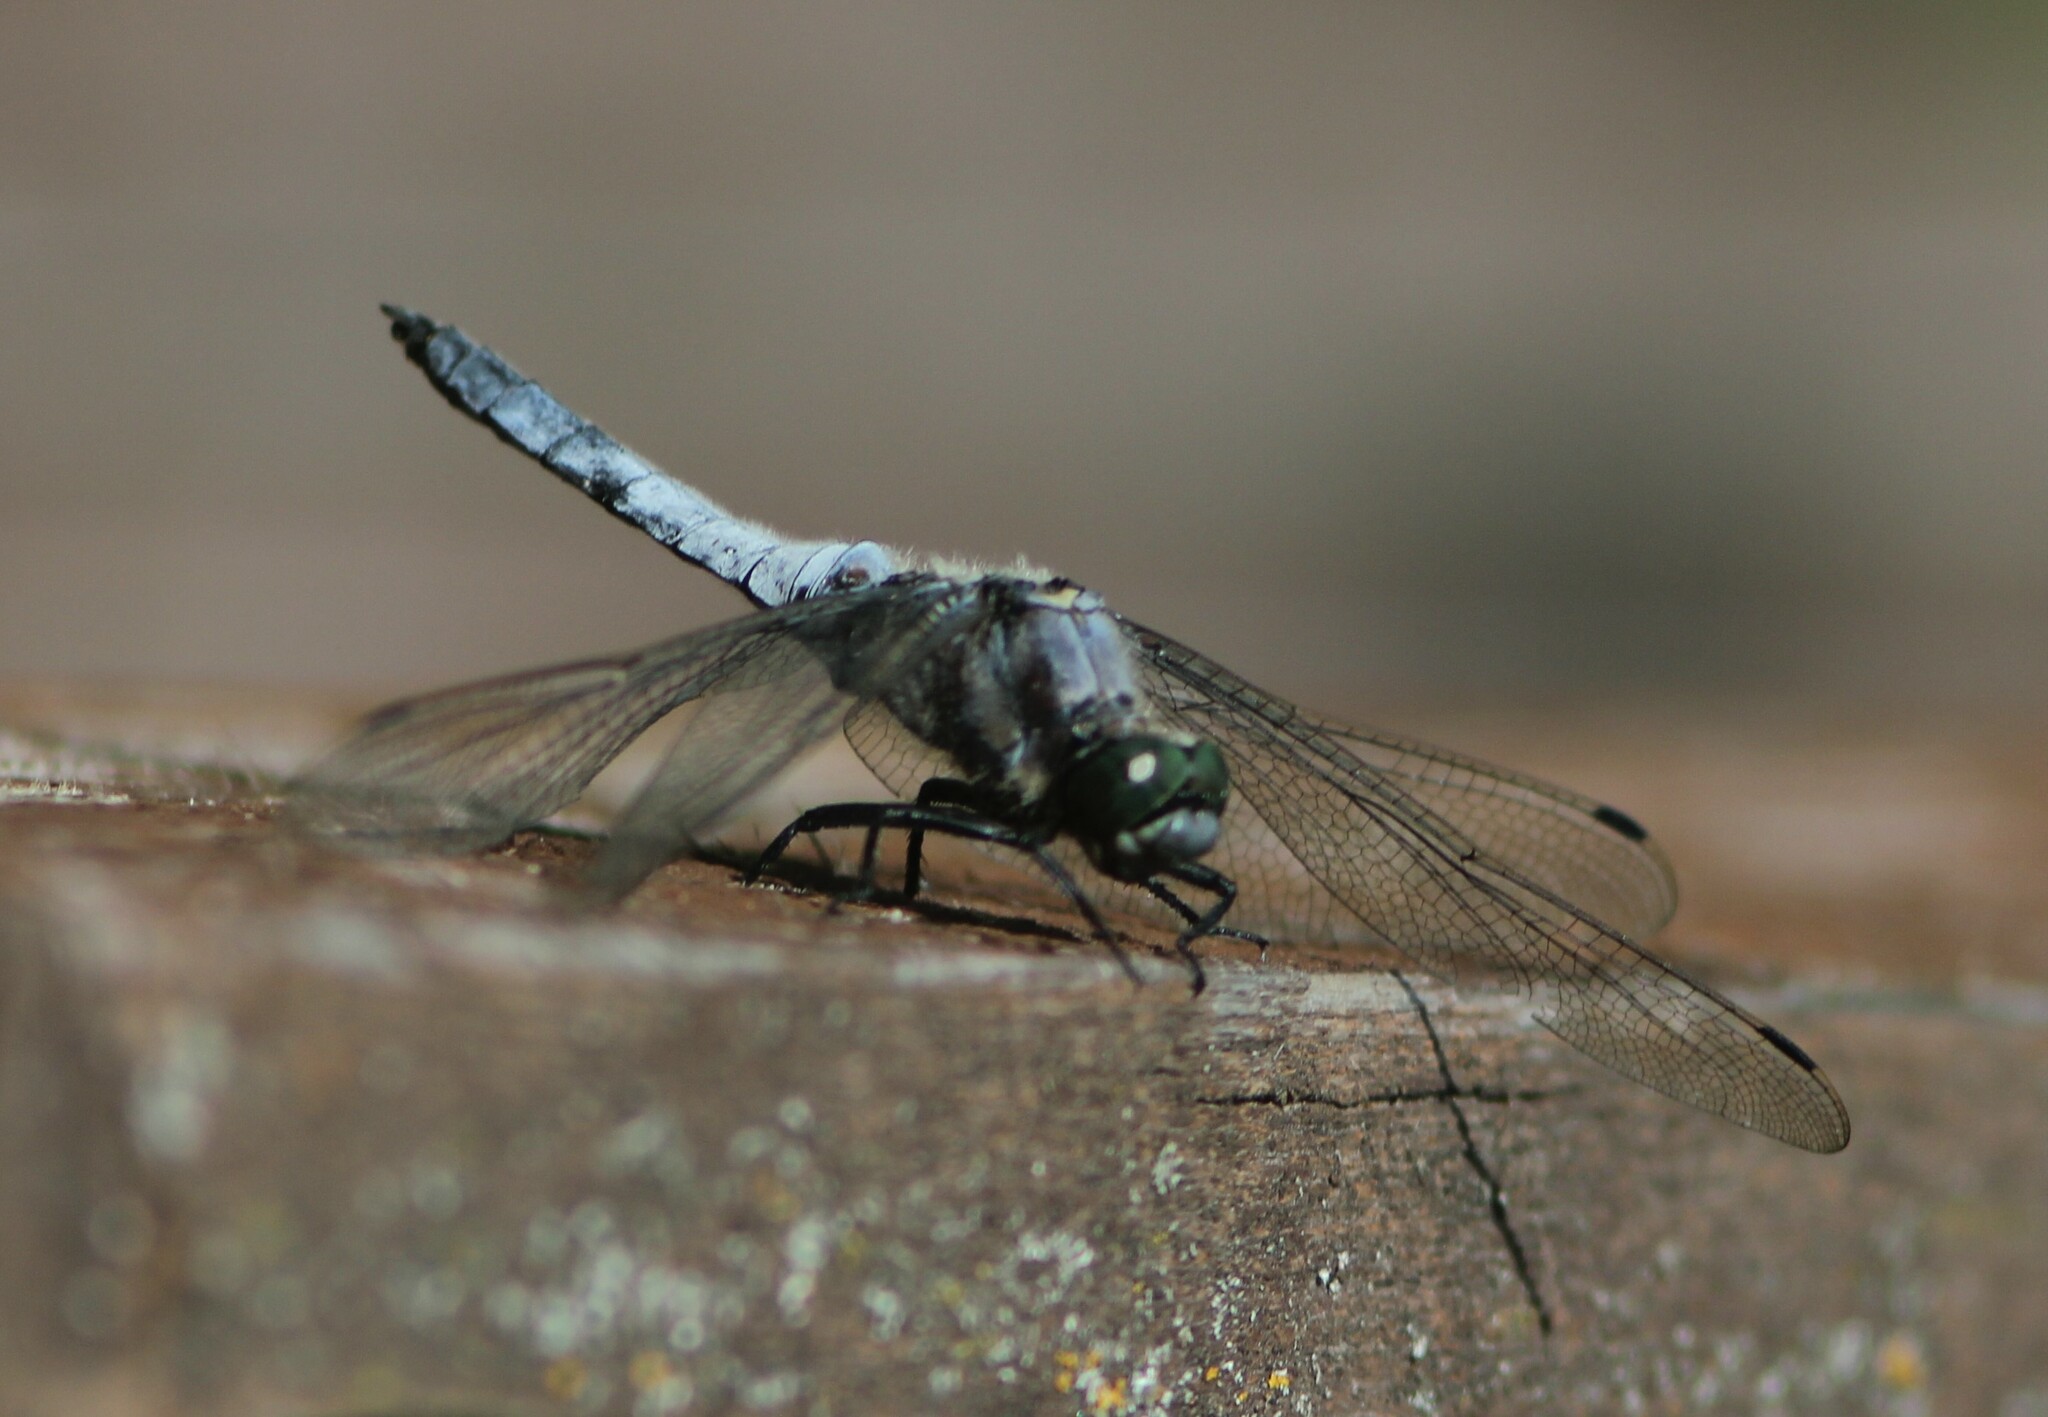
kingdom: Animalia
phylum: Arthropoda
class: Insecta
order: Odonata
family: Libellulidae
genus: Orthetrum
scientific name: Orthetrum cancellatum
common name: Black-tailed skimmer
